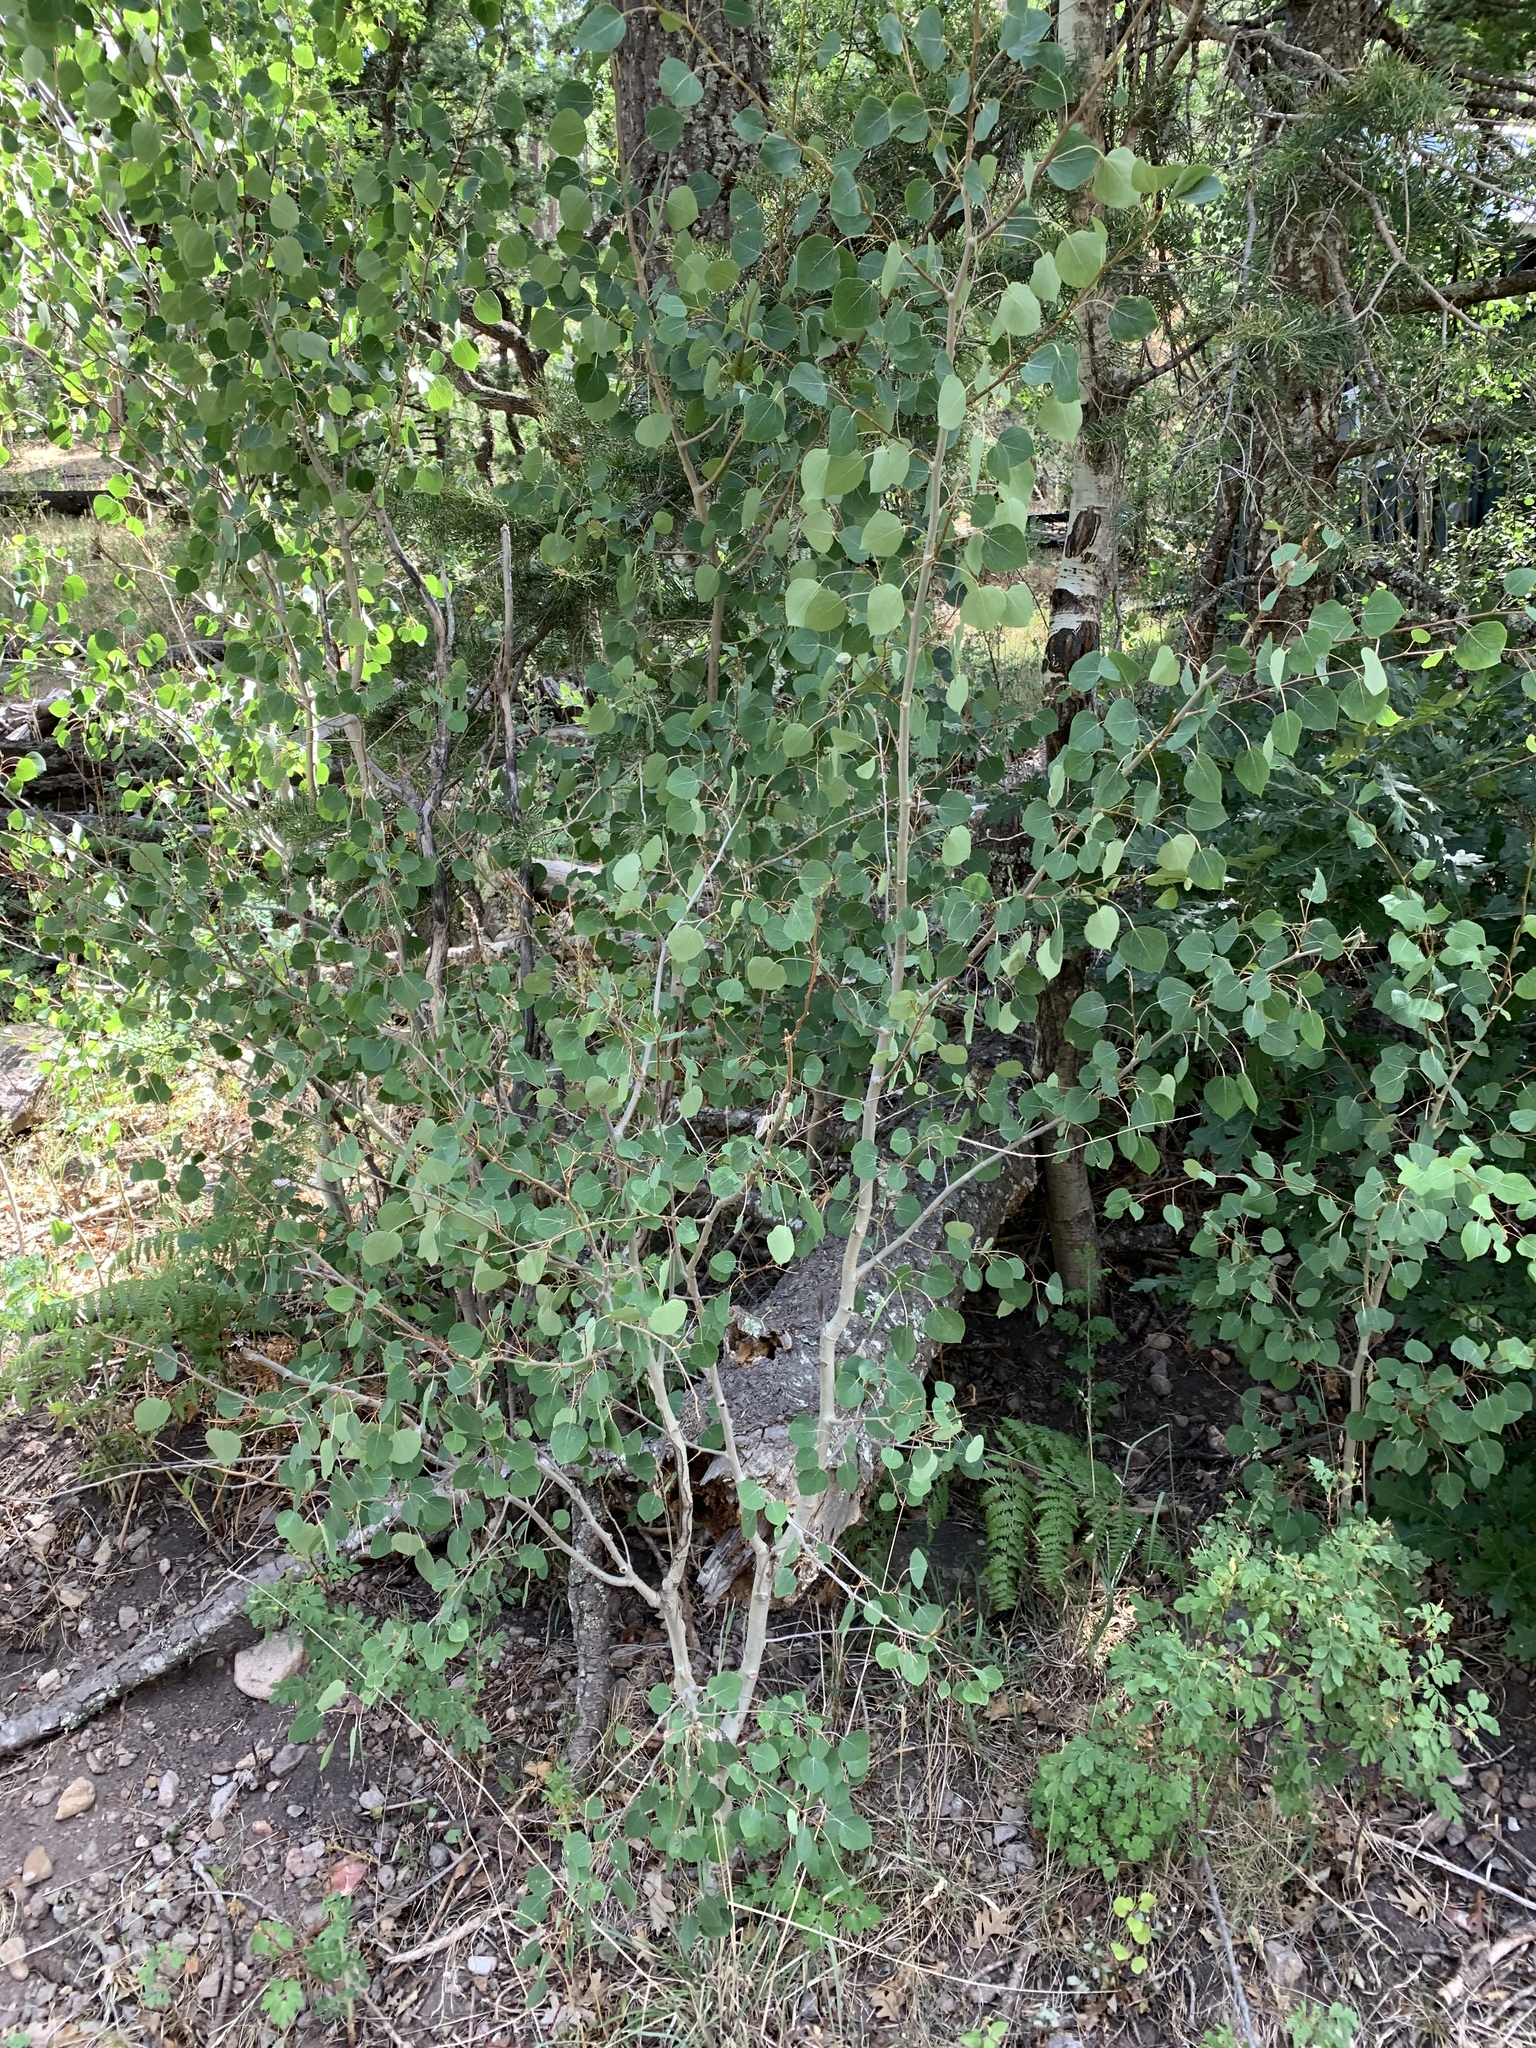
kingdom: Plantae
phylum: Tracheophyta
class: Magnoliopsida
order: Malpighiales
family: Salicaceae
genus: Populus
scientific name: Populus tremuloides
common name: Quaking aspen
